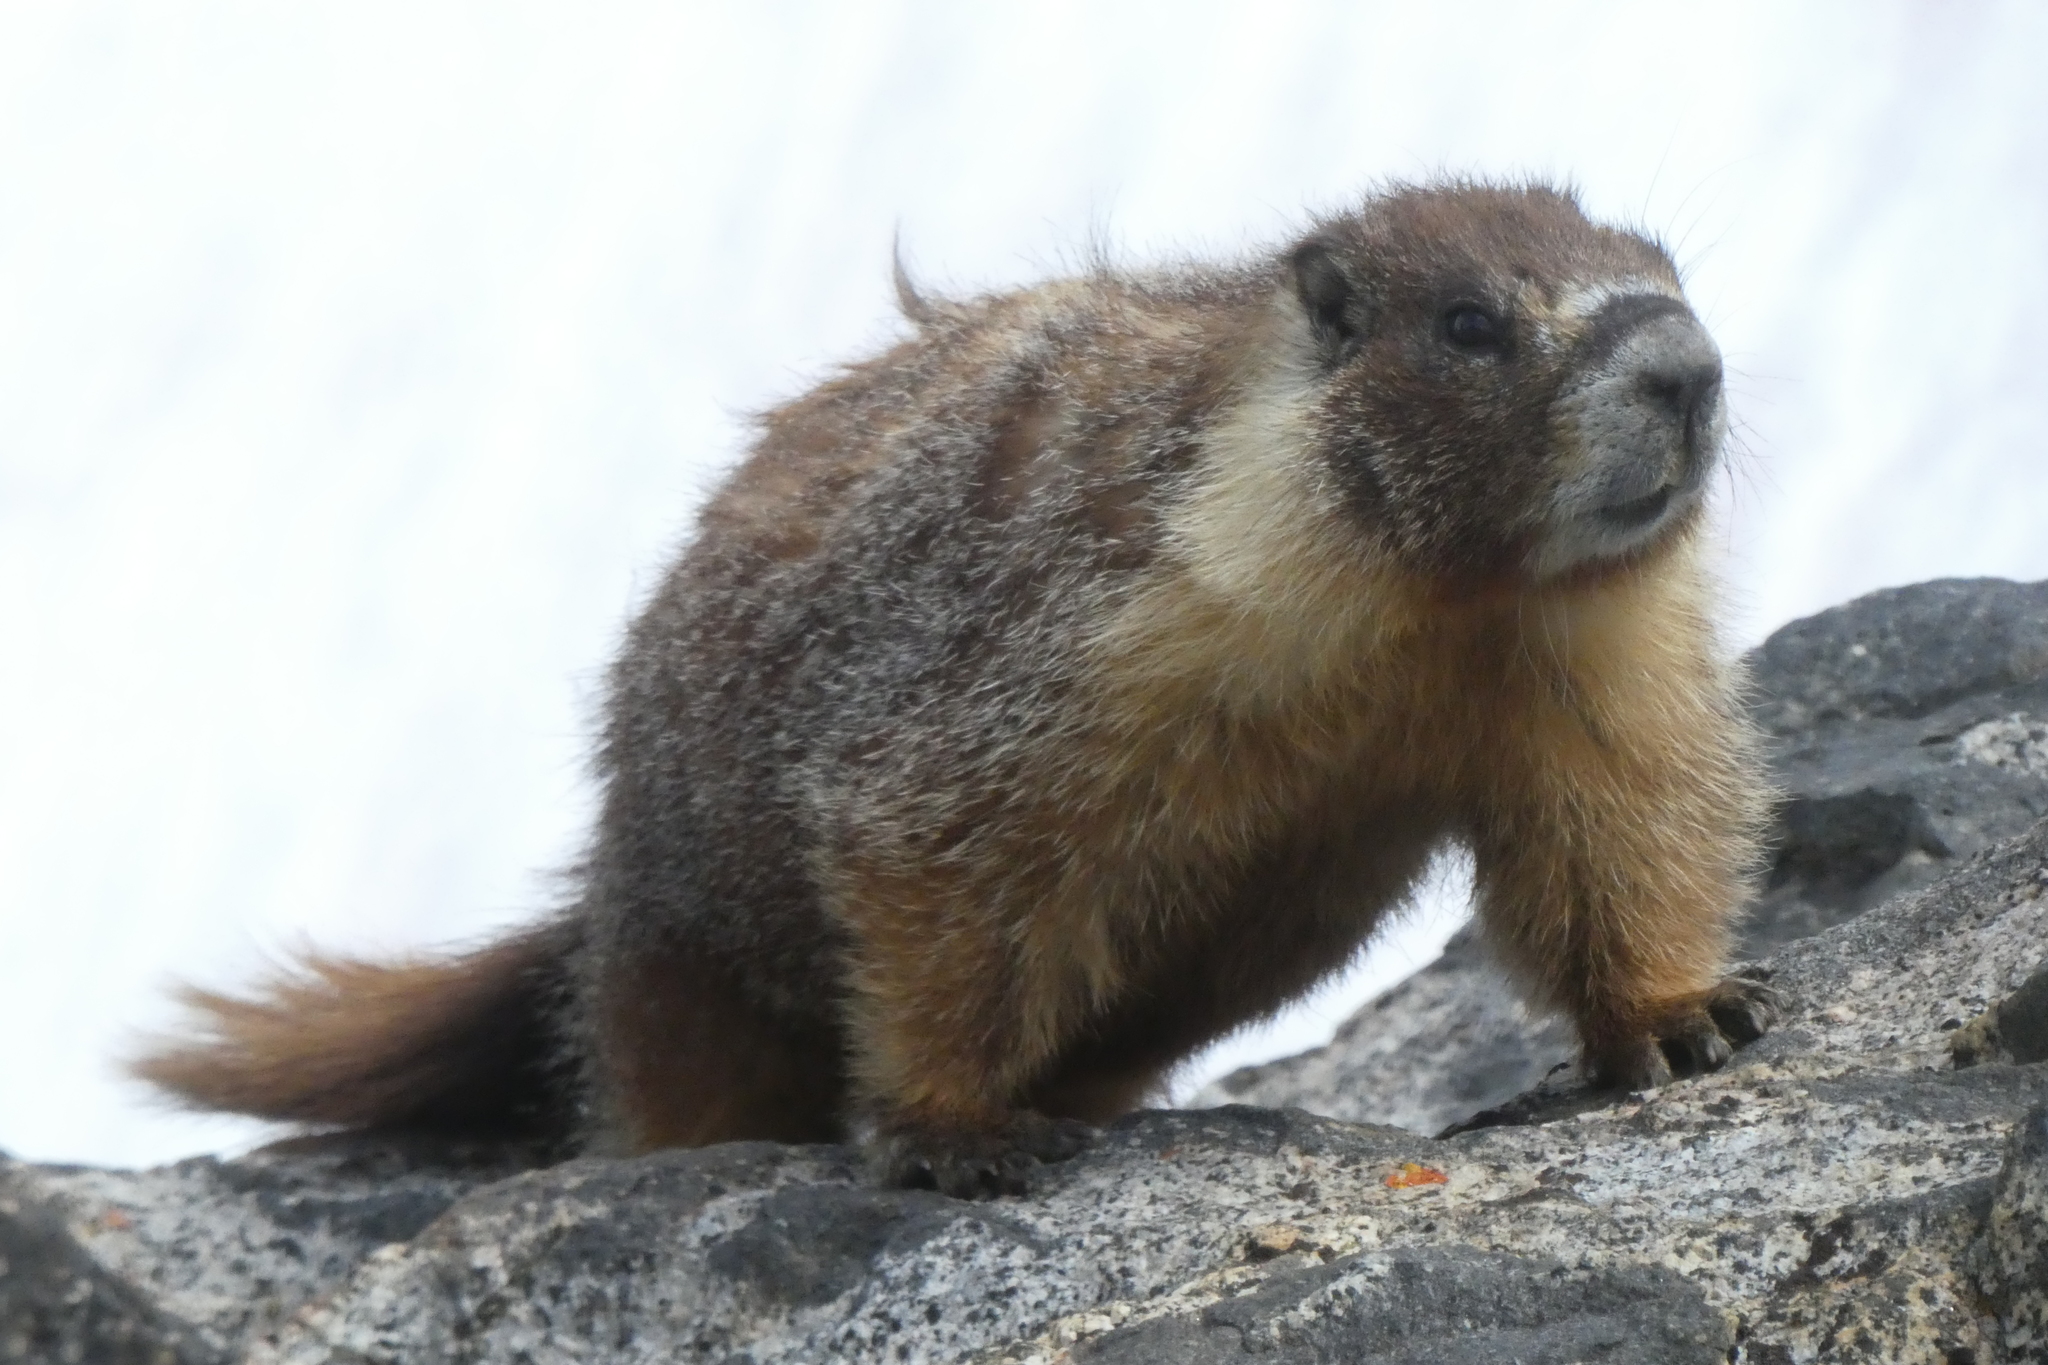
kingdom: Animalia
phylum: Chordata
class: Mammalia
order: Rodentia
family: Sciuridae
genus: Marmota
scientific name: Marmota flaviventris
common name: Yellow-bellied marmot
